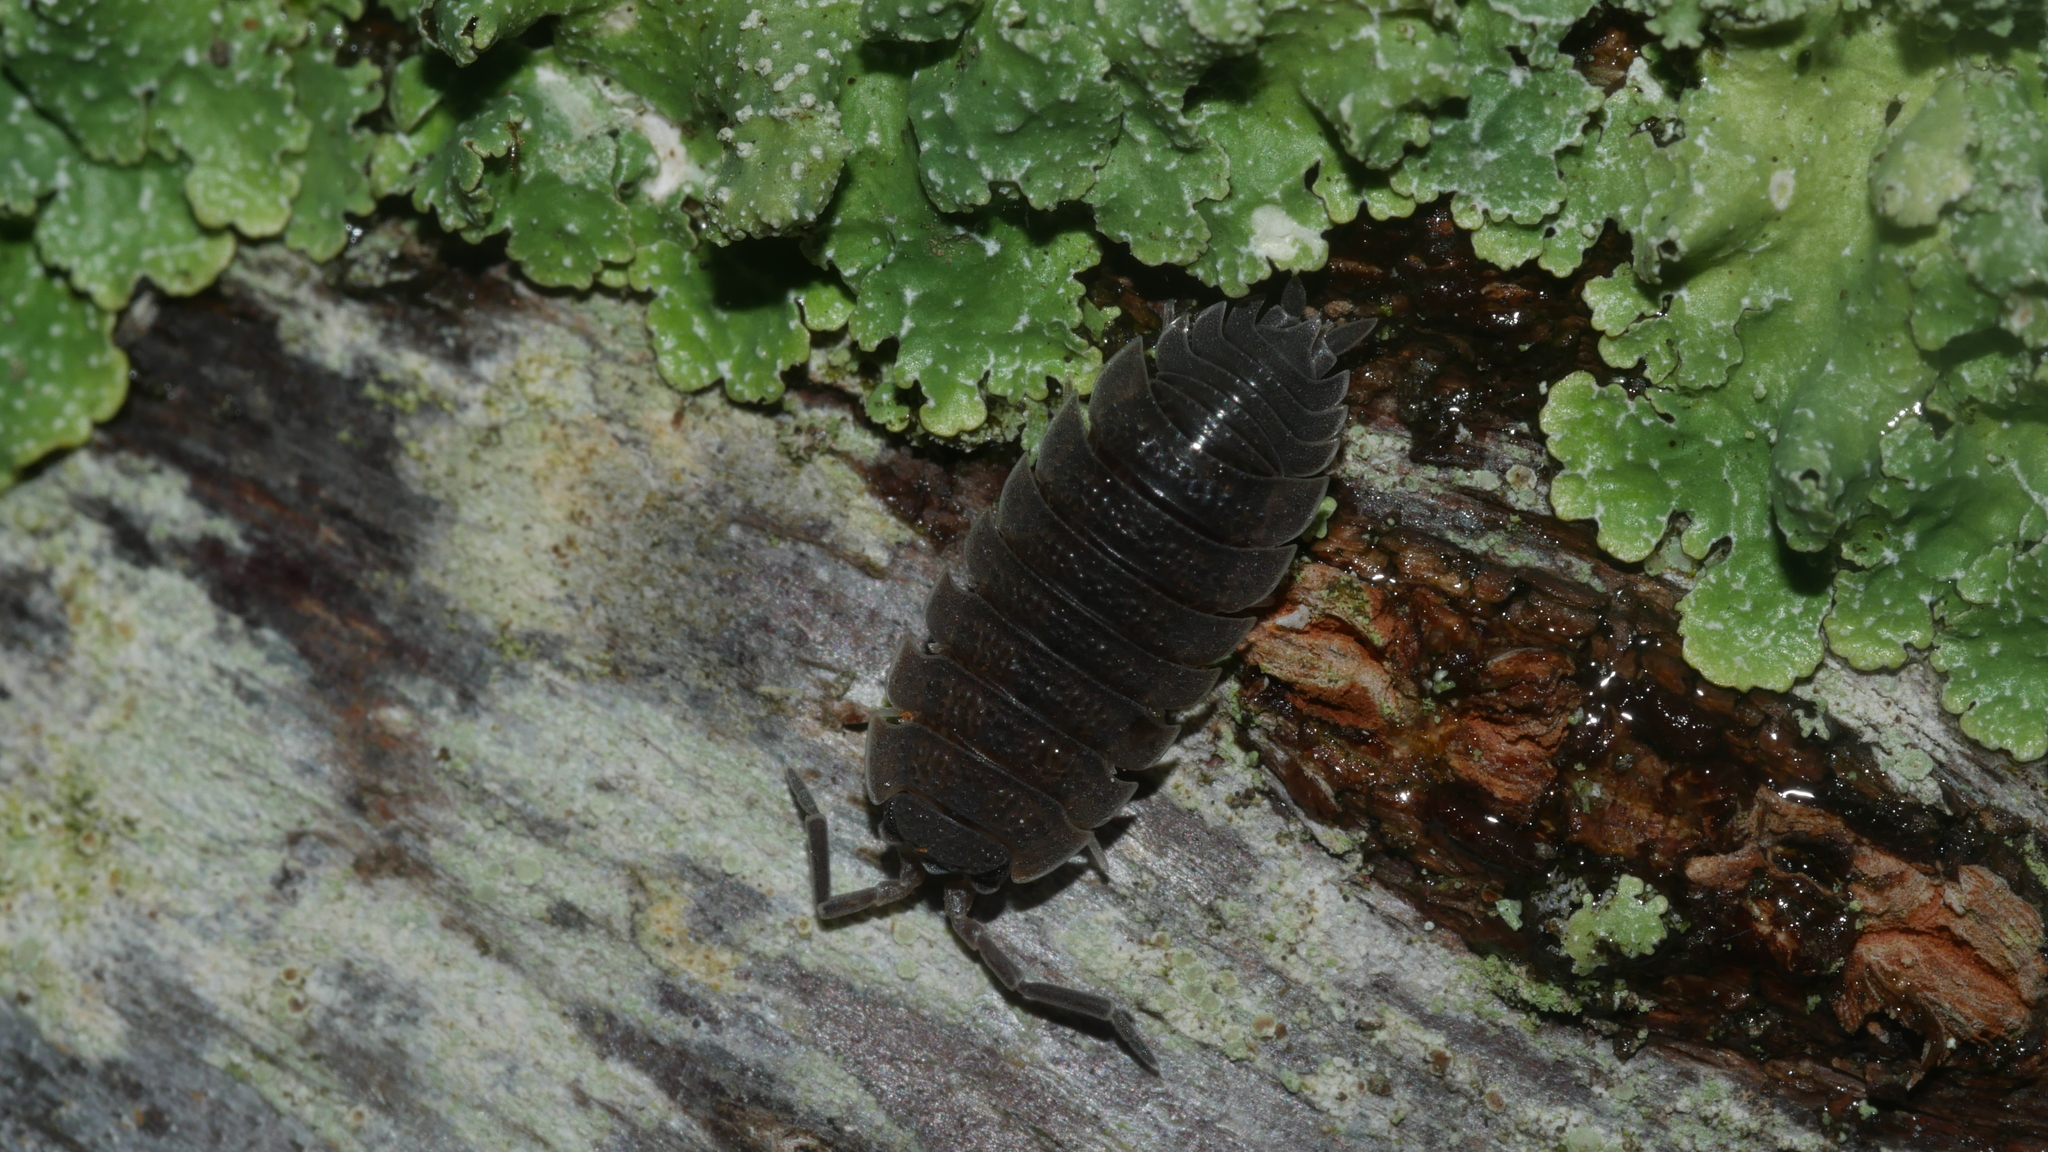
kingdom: Animalia
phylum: Arthropoda
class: Malacostraca
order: Isopoda
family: Porcellionidae
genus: Porcellio
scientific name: Porcellio scaber
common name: Common rough woodlouse
